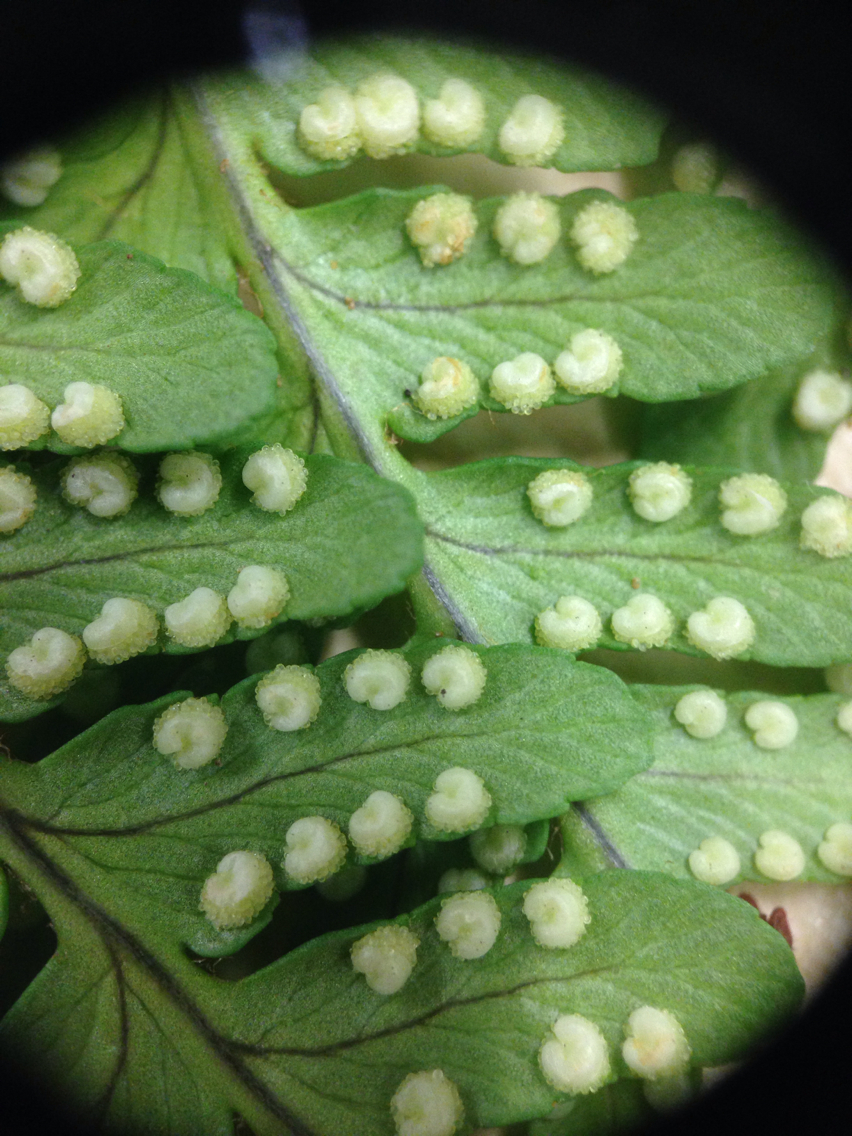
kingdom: Plantae
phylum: Tracheophyta
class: Polypodiopsida
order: Polypodiales
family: Dryopteridaceae
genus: Dryopteris
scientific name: Dryopteris marginalis
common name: Marginal wood fern
